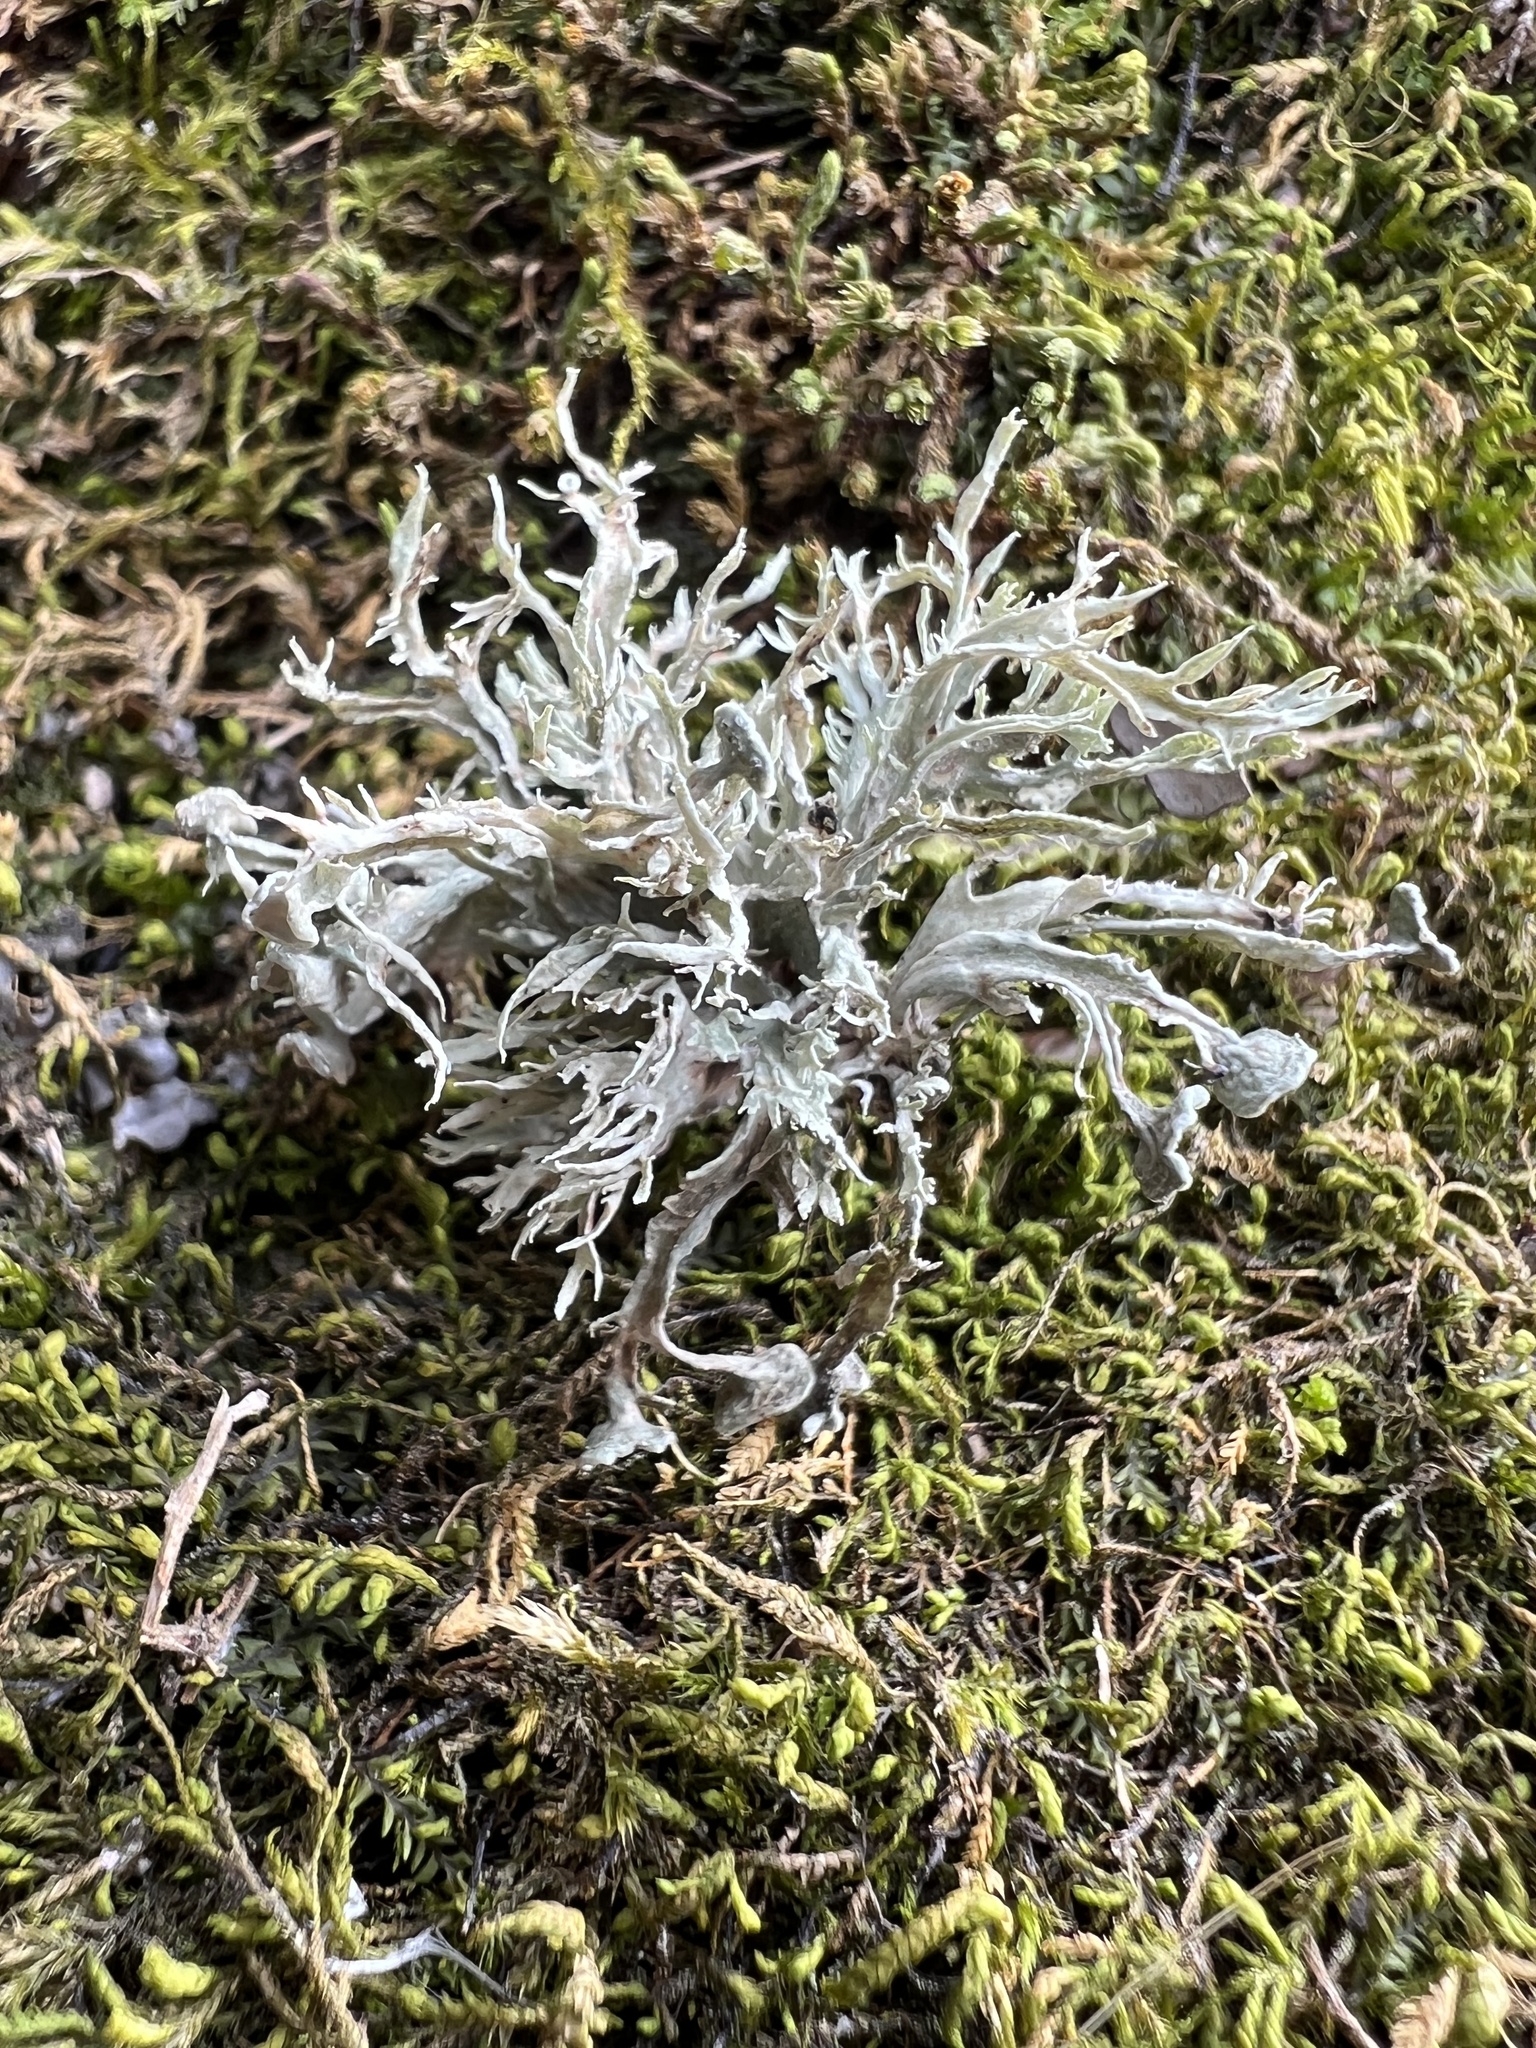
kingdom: Fungi
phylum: Ascomycota
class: Lecanoromycetes
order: Lecanorales
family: Ramalinaceae
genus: Ramalina
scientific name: Ramalina americana
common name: Sinewed bush lichen
